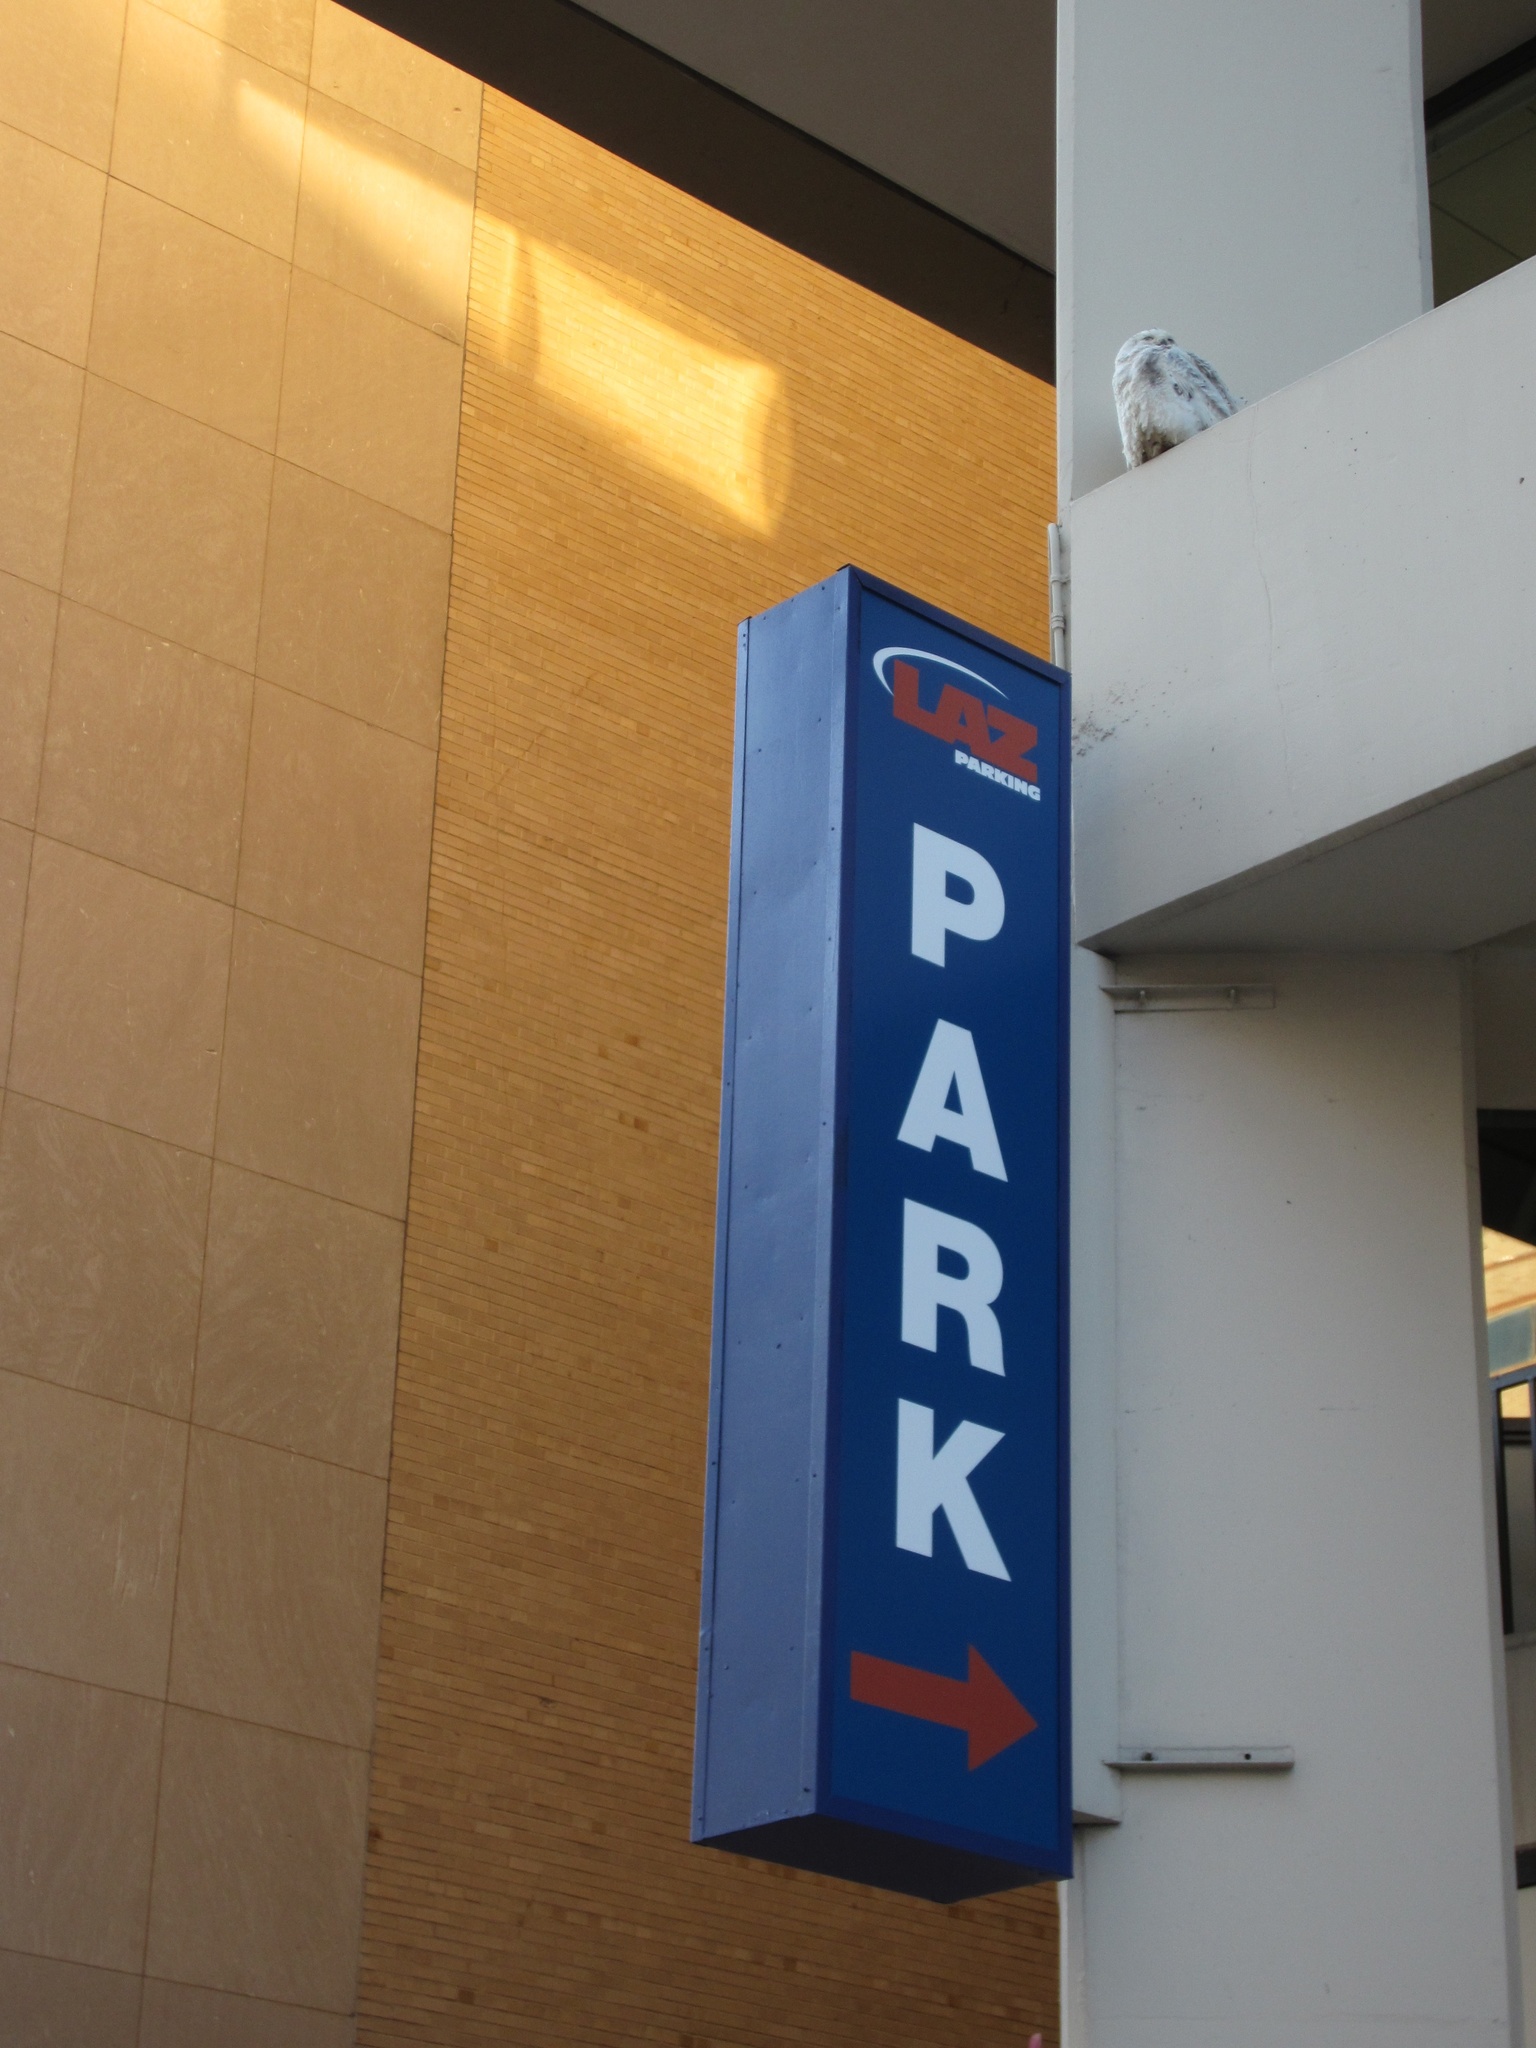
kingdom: Animalia
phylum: Chordata
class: Aves
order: Strigiformes
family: Strigidae
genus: Bubo
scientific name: Bubo scandiacus
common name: Snowy owl
